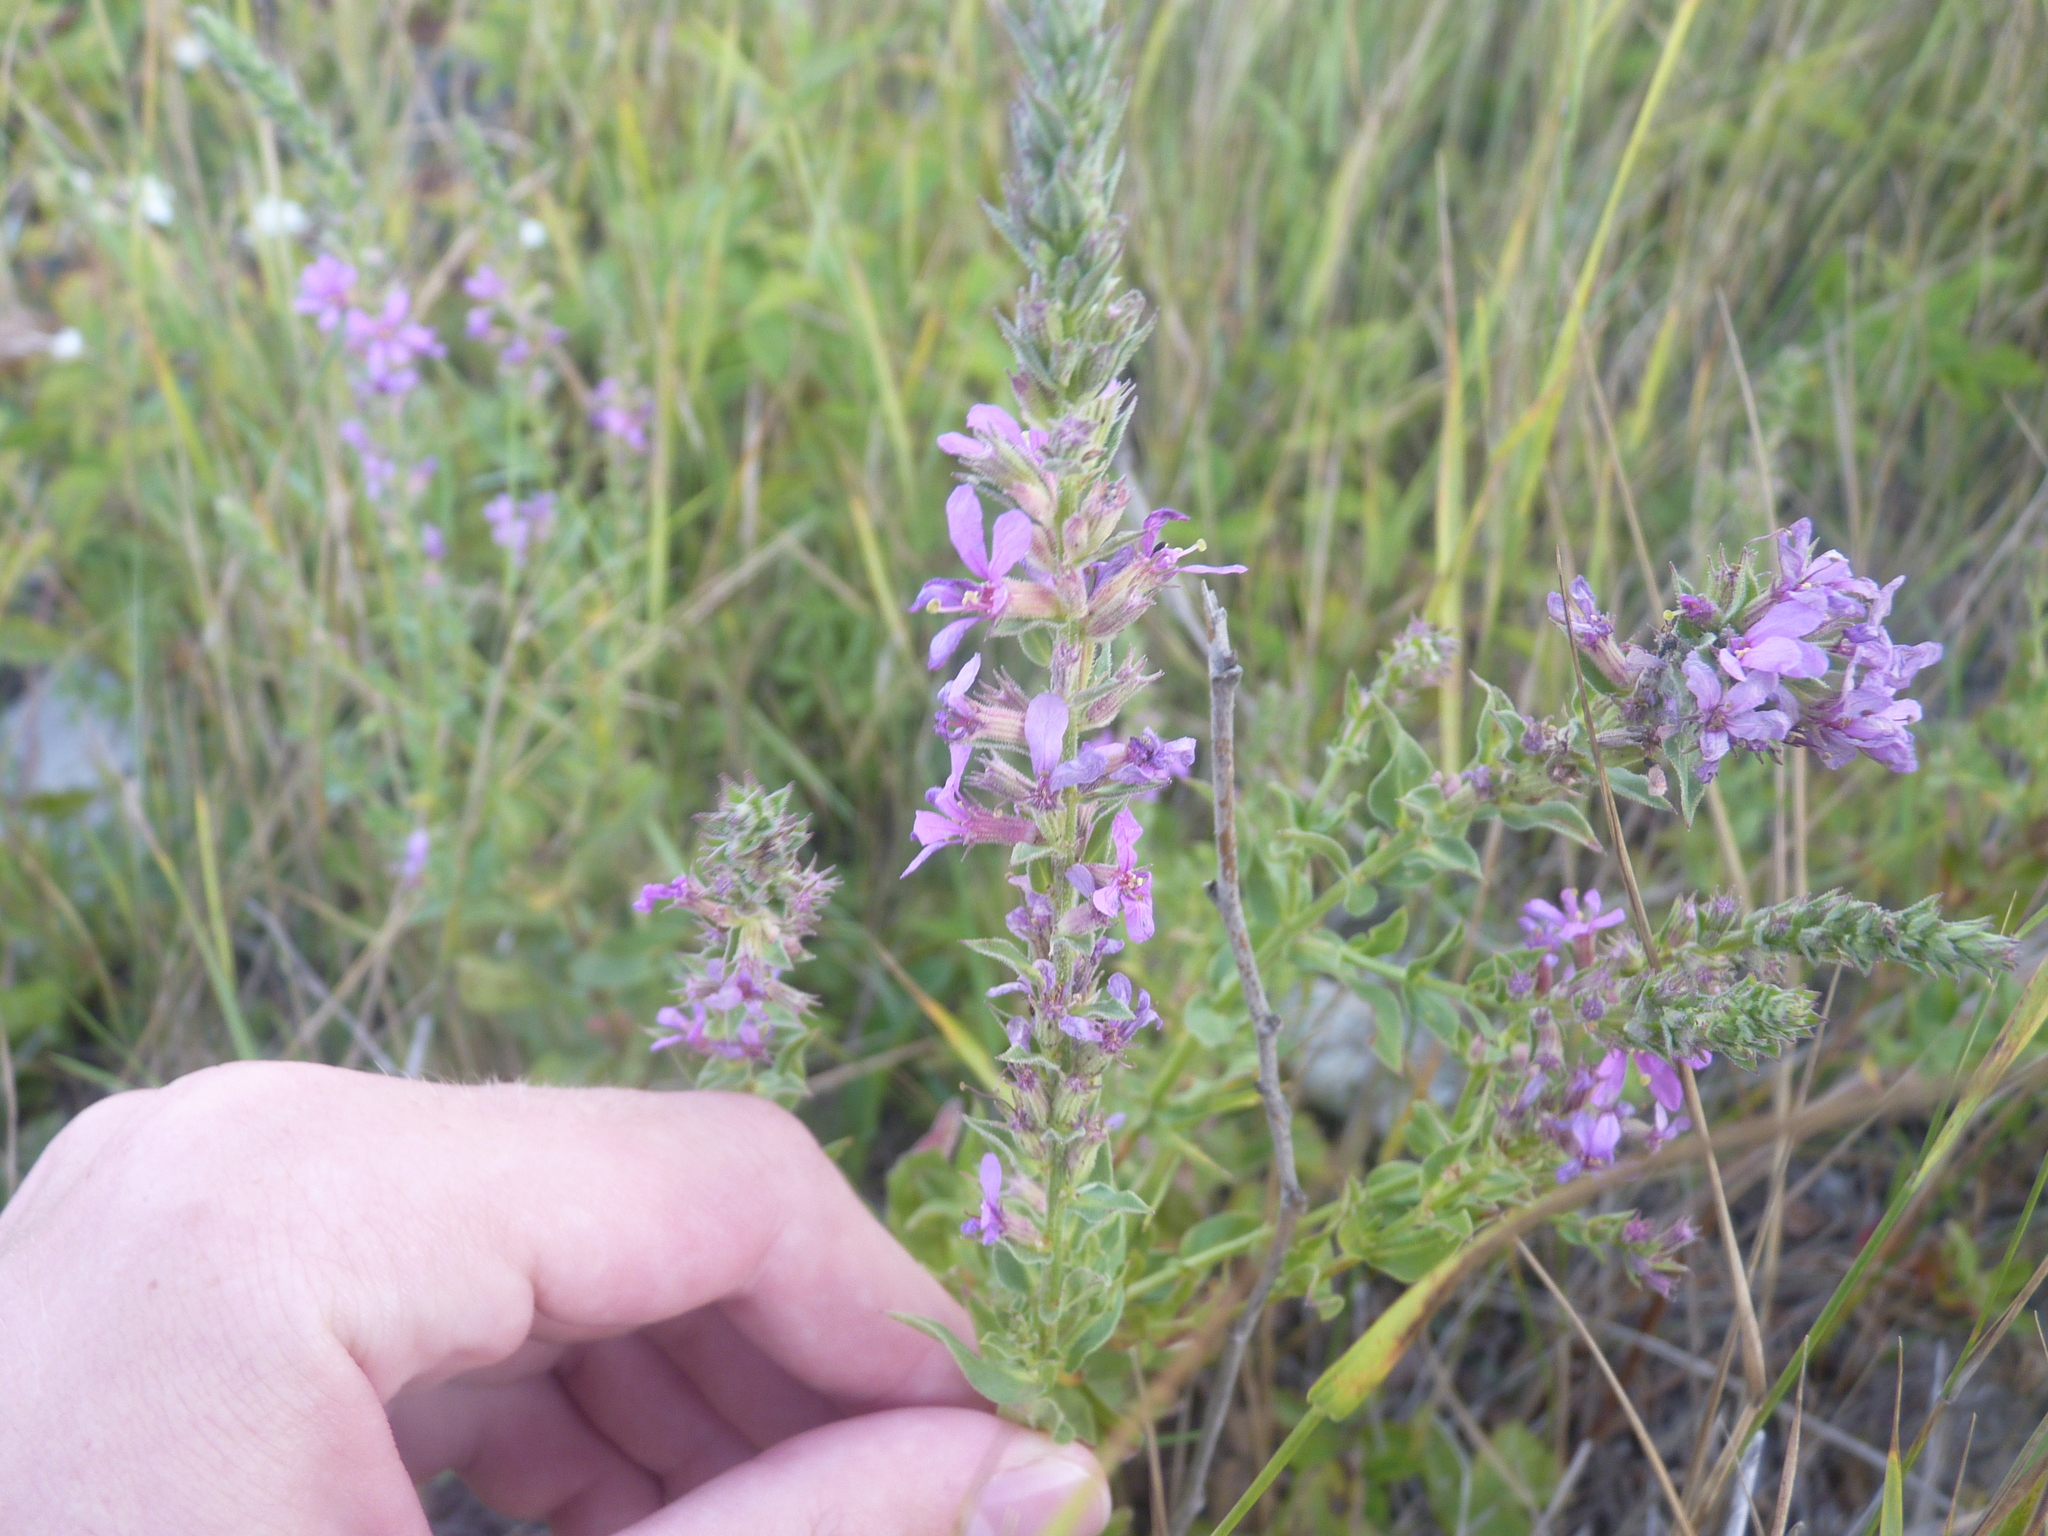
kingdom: Plantae
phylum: Tracheophyta
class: Magnoliopsida
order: Myrtales
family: Lythraceae
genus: Lythrum
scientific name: Lythrum salicaria
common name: Purple loosestrife
